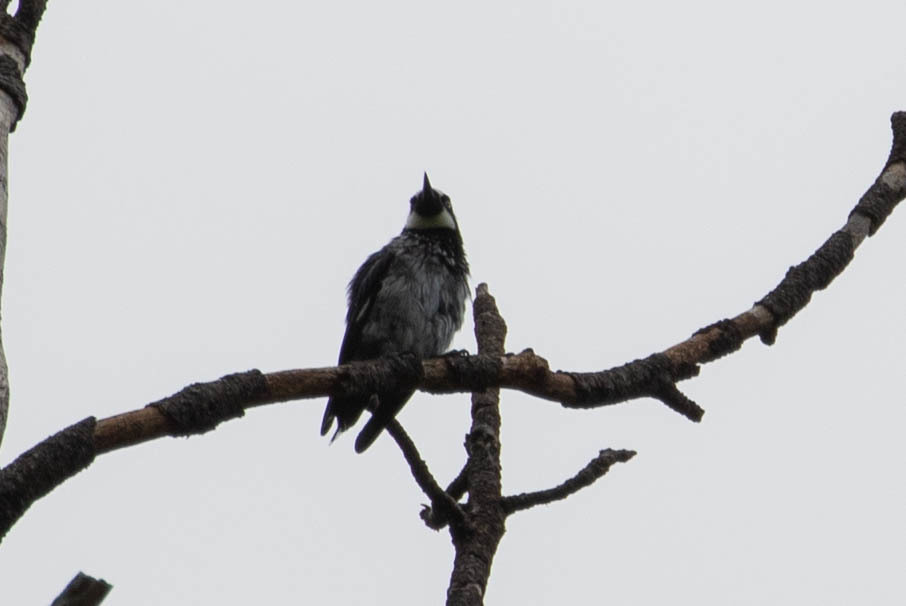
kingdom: Animalia
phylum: Chordata
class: Aves
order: Piciformes
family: Picidae
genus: Melanerpes
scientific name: Melanerpes formicivorus
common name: Acorn woodpecker
